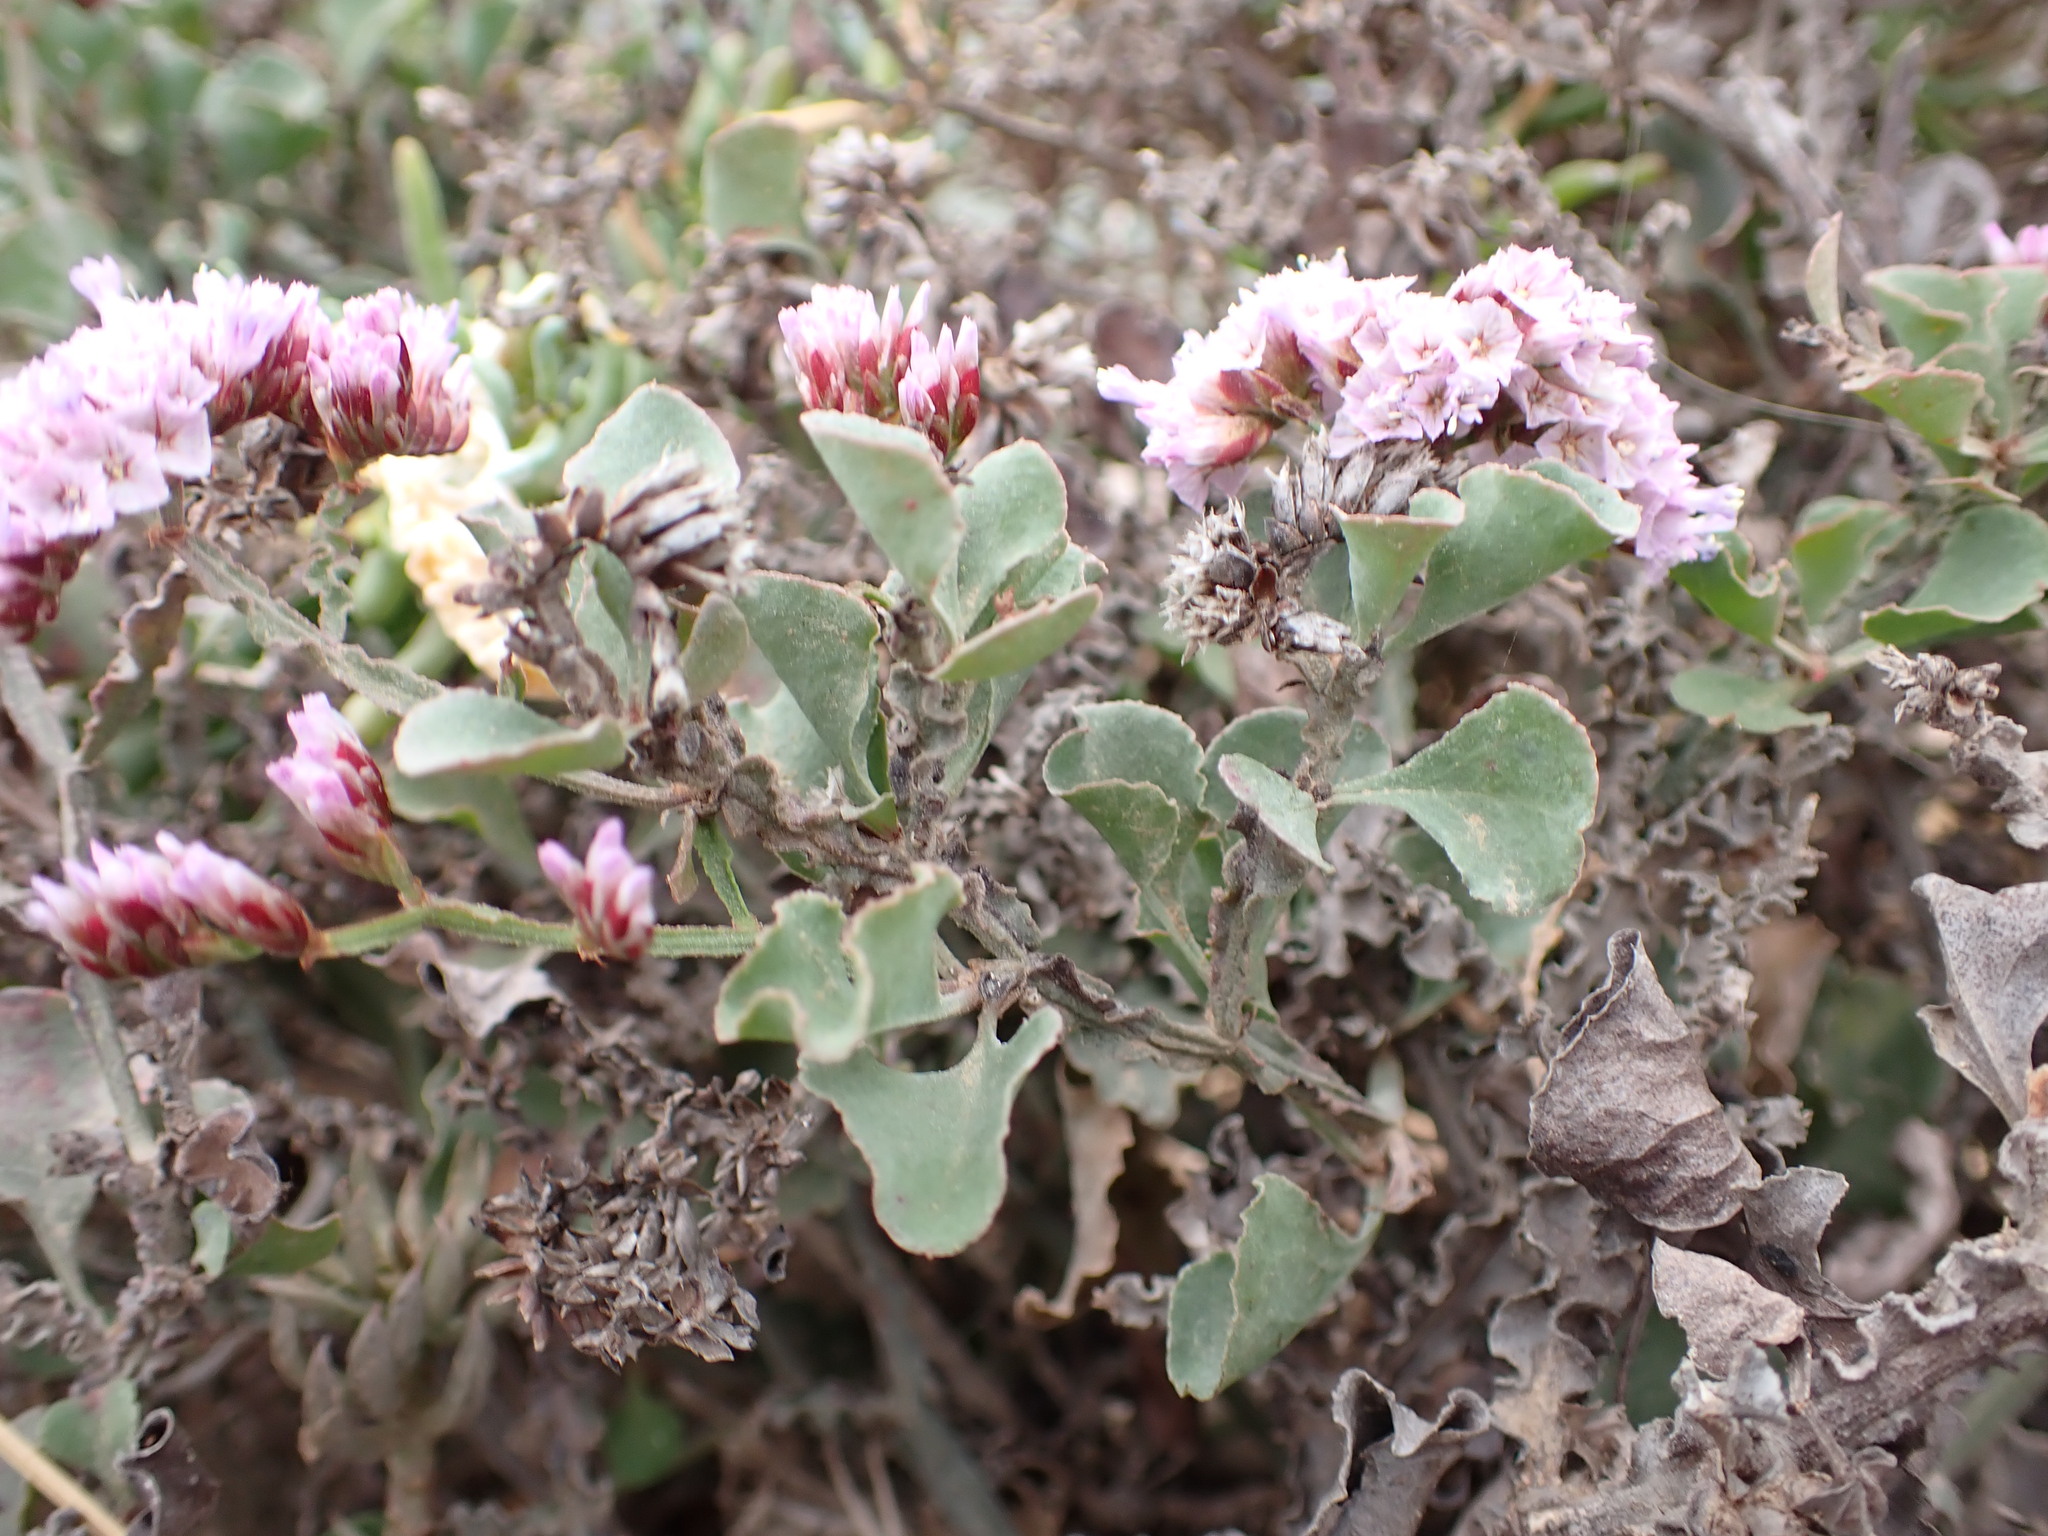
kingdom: Plantae
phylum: Tracheophyta
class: Magnoliopsida
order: Caryophyllales
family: Plumbaginaceae
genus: Limonium
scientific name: Limonium mucronatum
